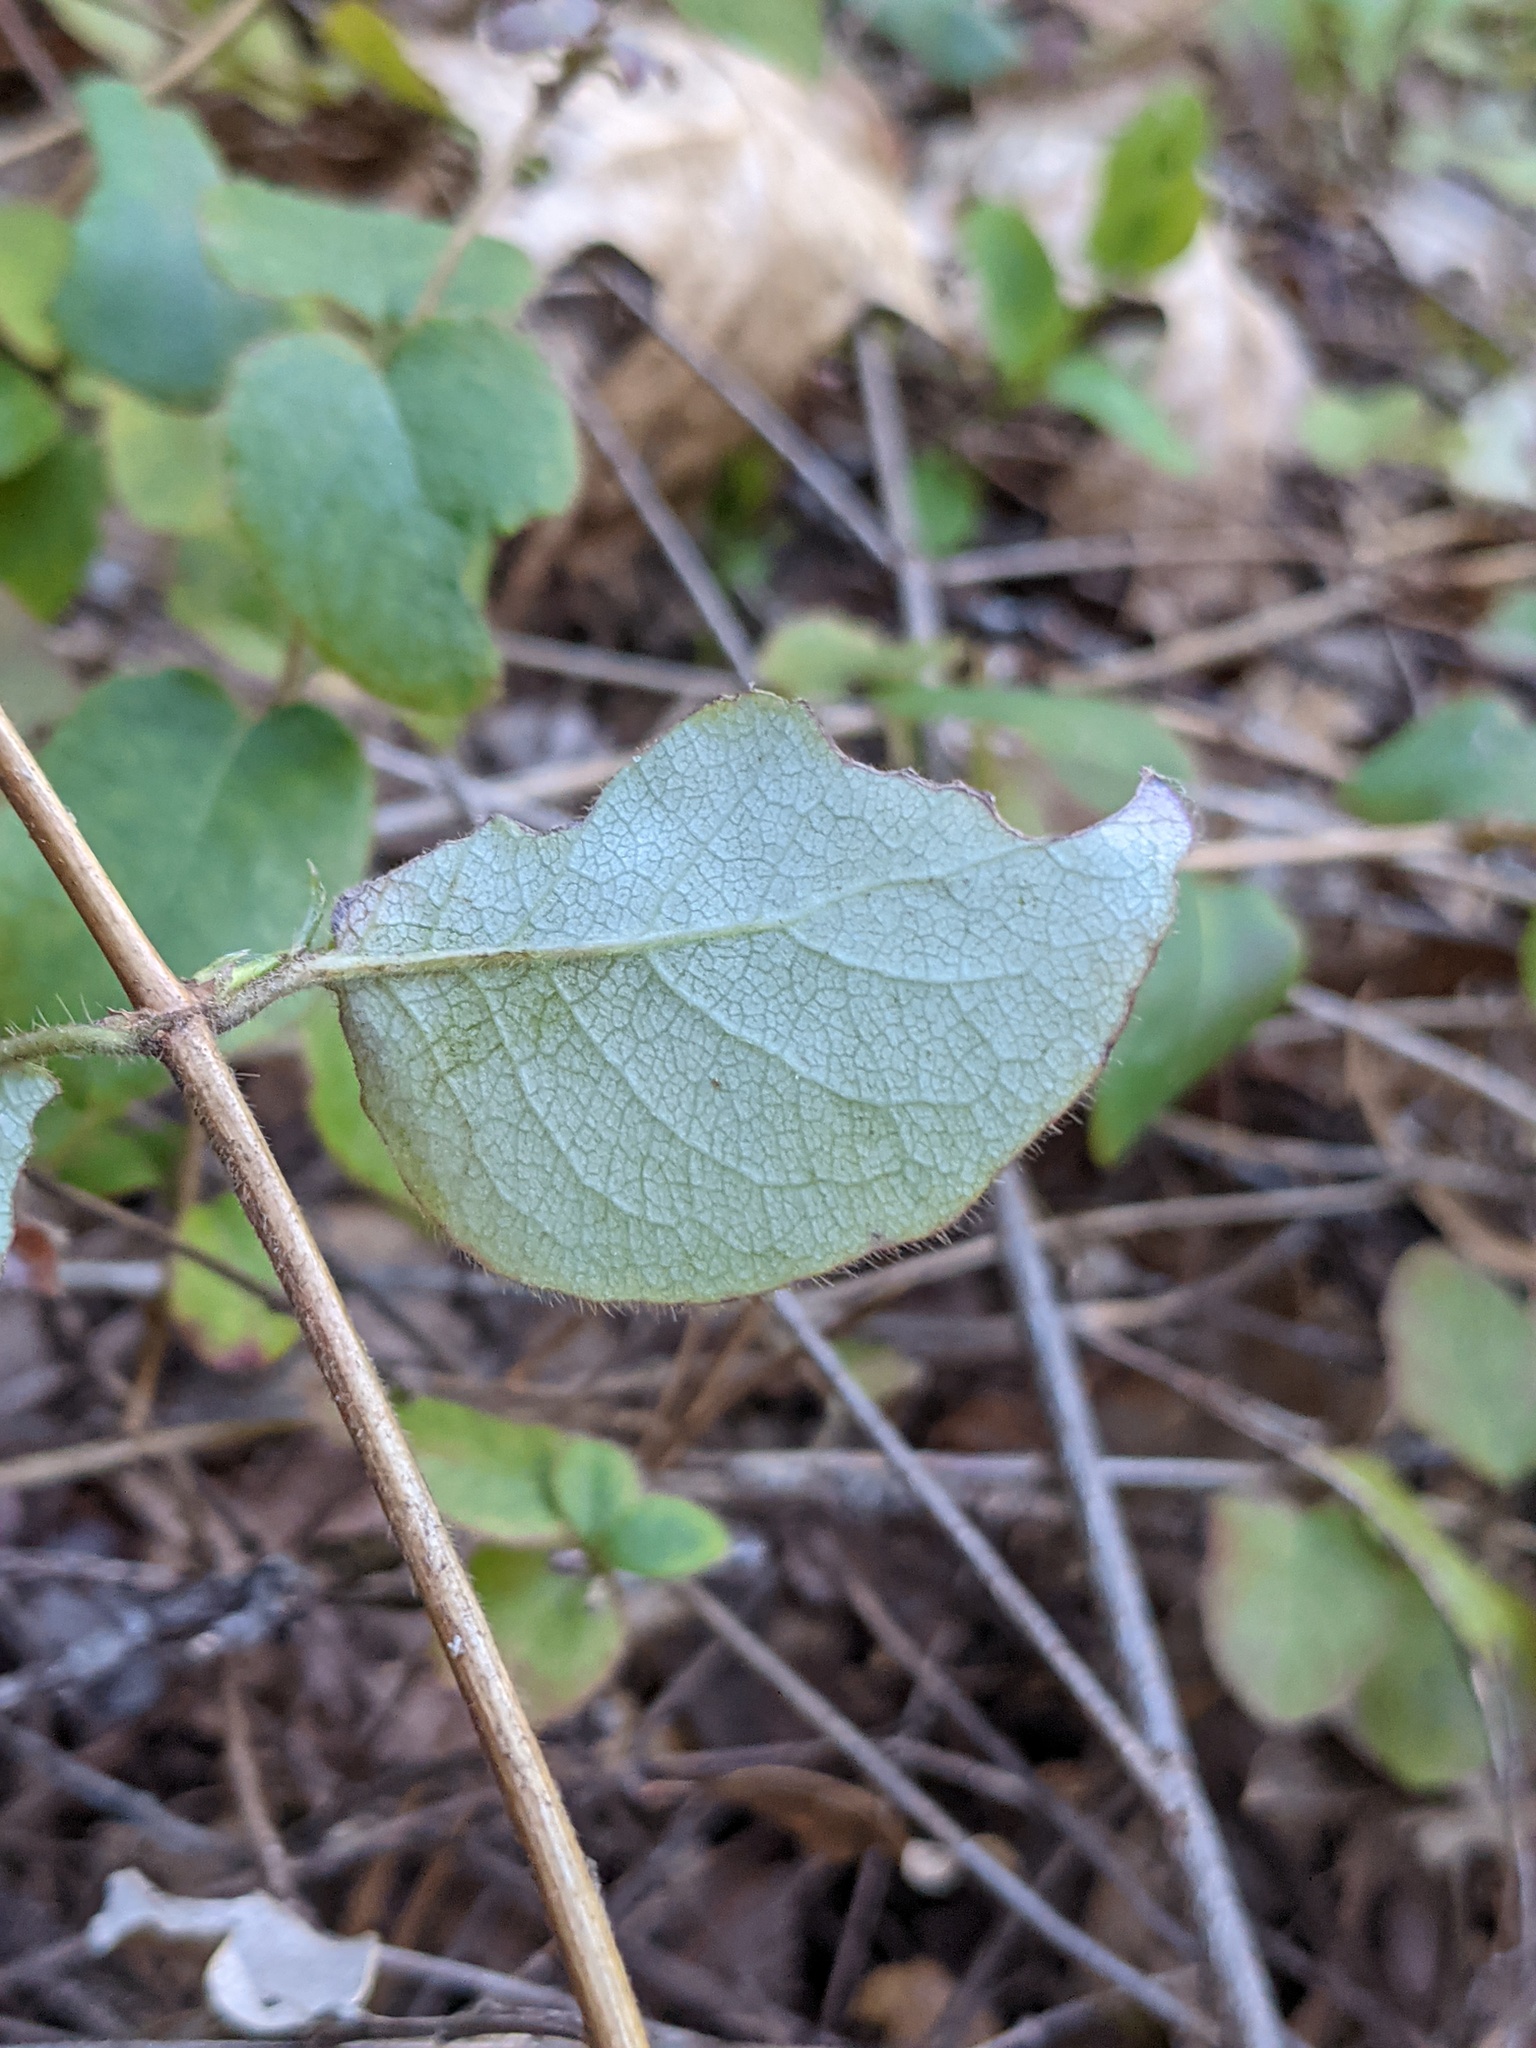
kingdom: Plantae
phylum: Tracheophyta
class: Magnoliopsida
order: Dipsacales
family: Caprifoliaceae
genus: Lonicera
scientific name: Lonicera hispidula
